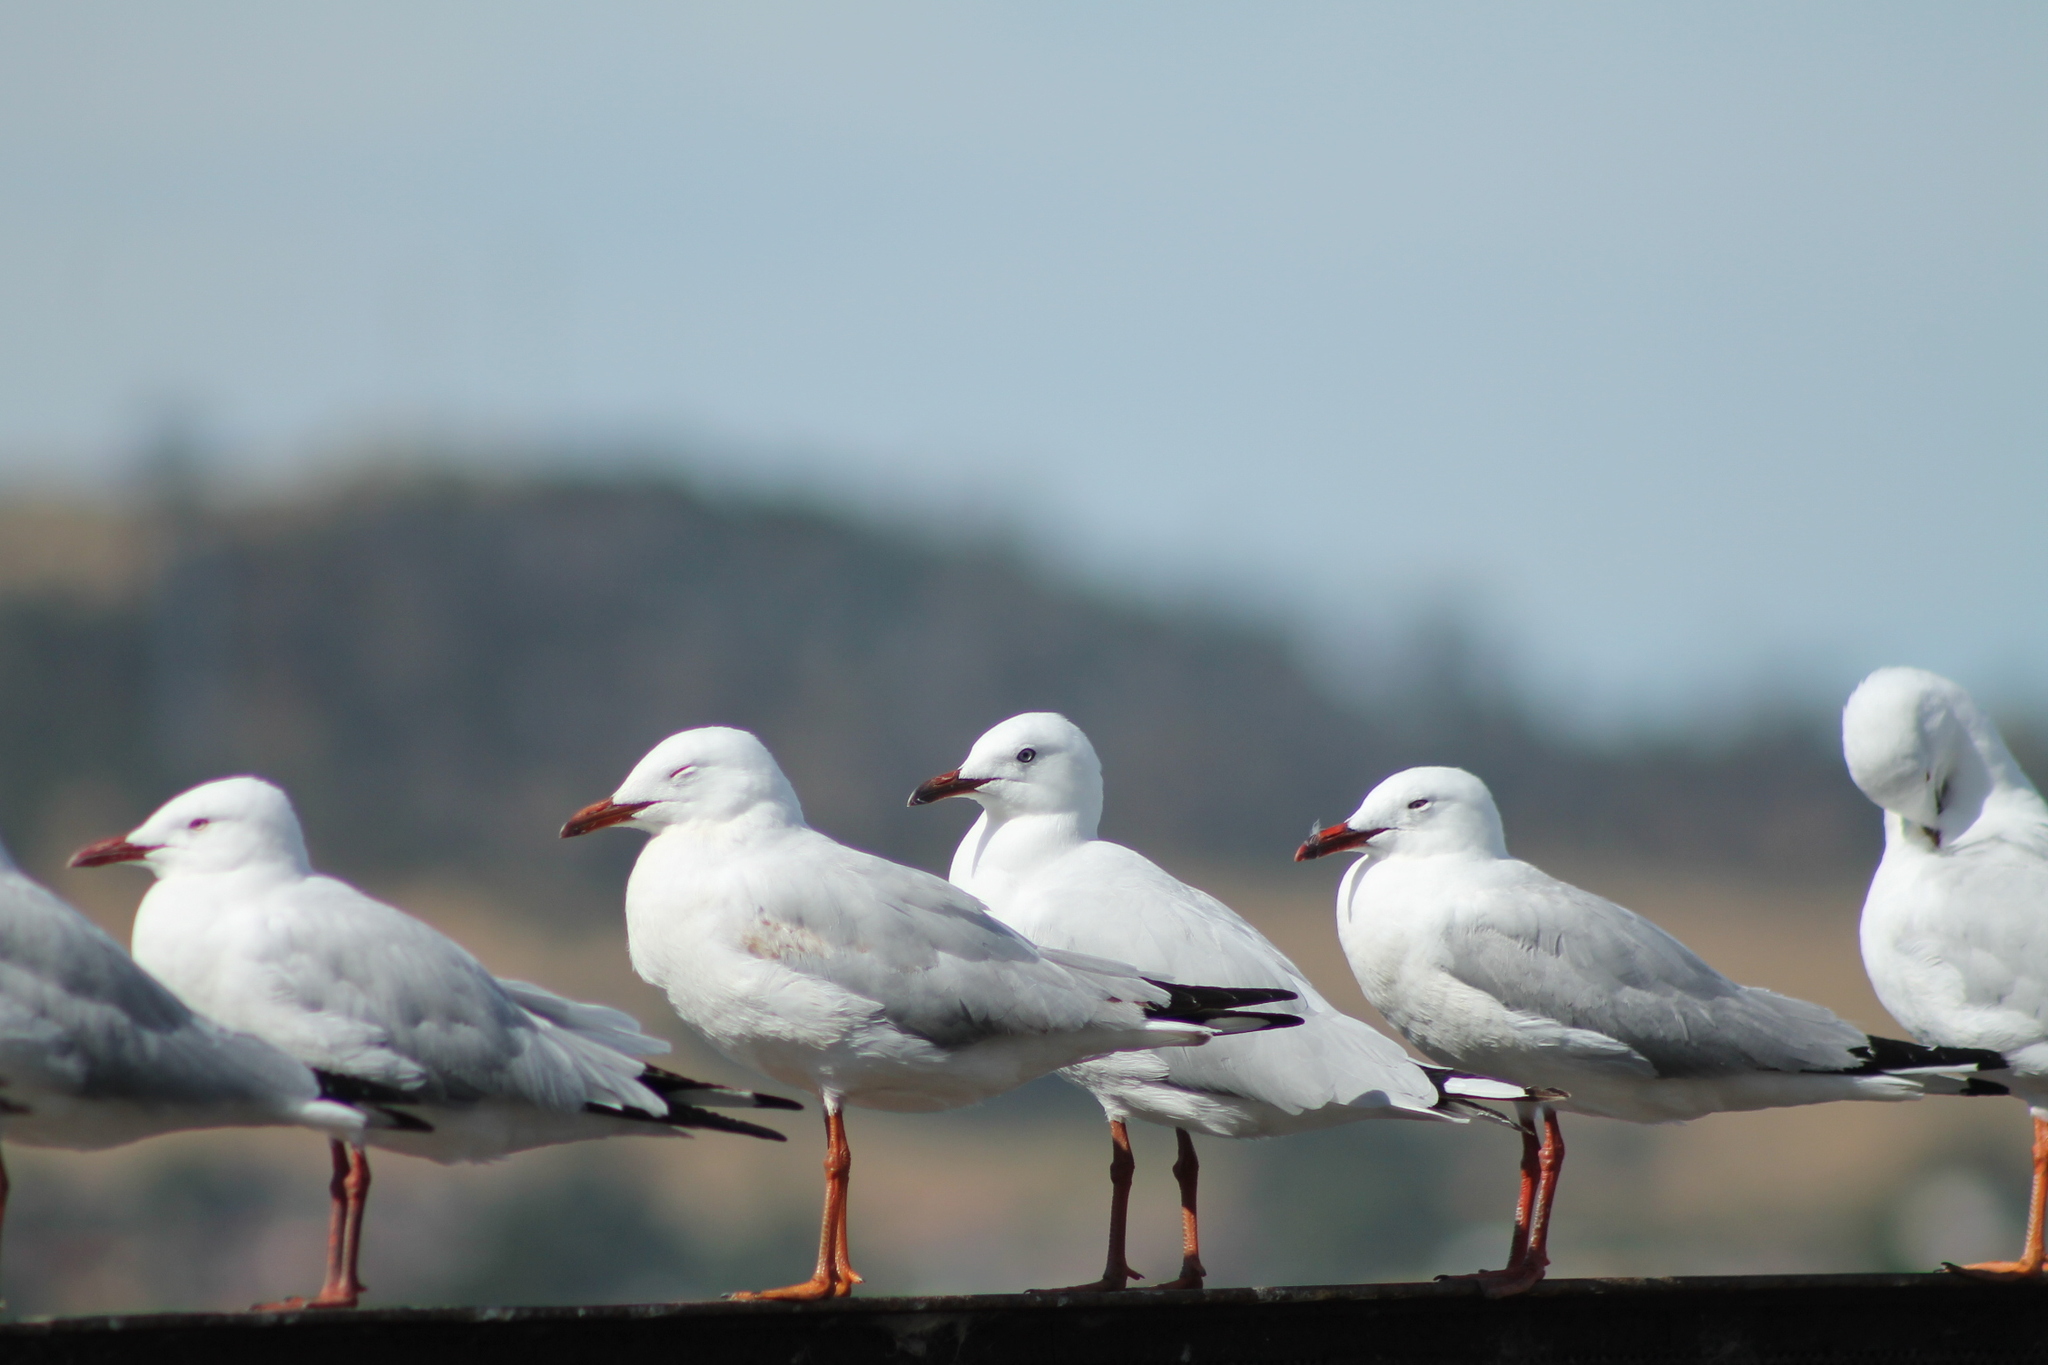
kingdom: Animalia
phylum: Chordata
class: Aves
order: Charadriiformes
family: Laridae
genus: Chroicocephalus
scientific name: Chroicocephalus novaehollandiae
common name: Silver gull
